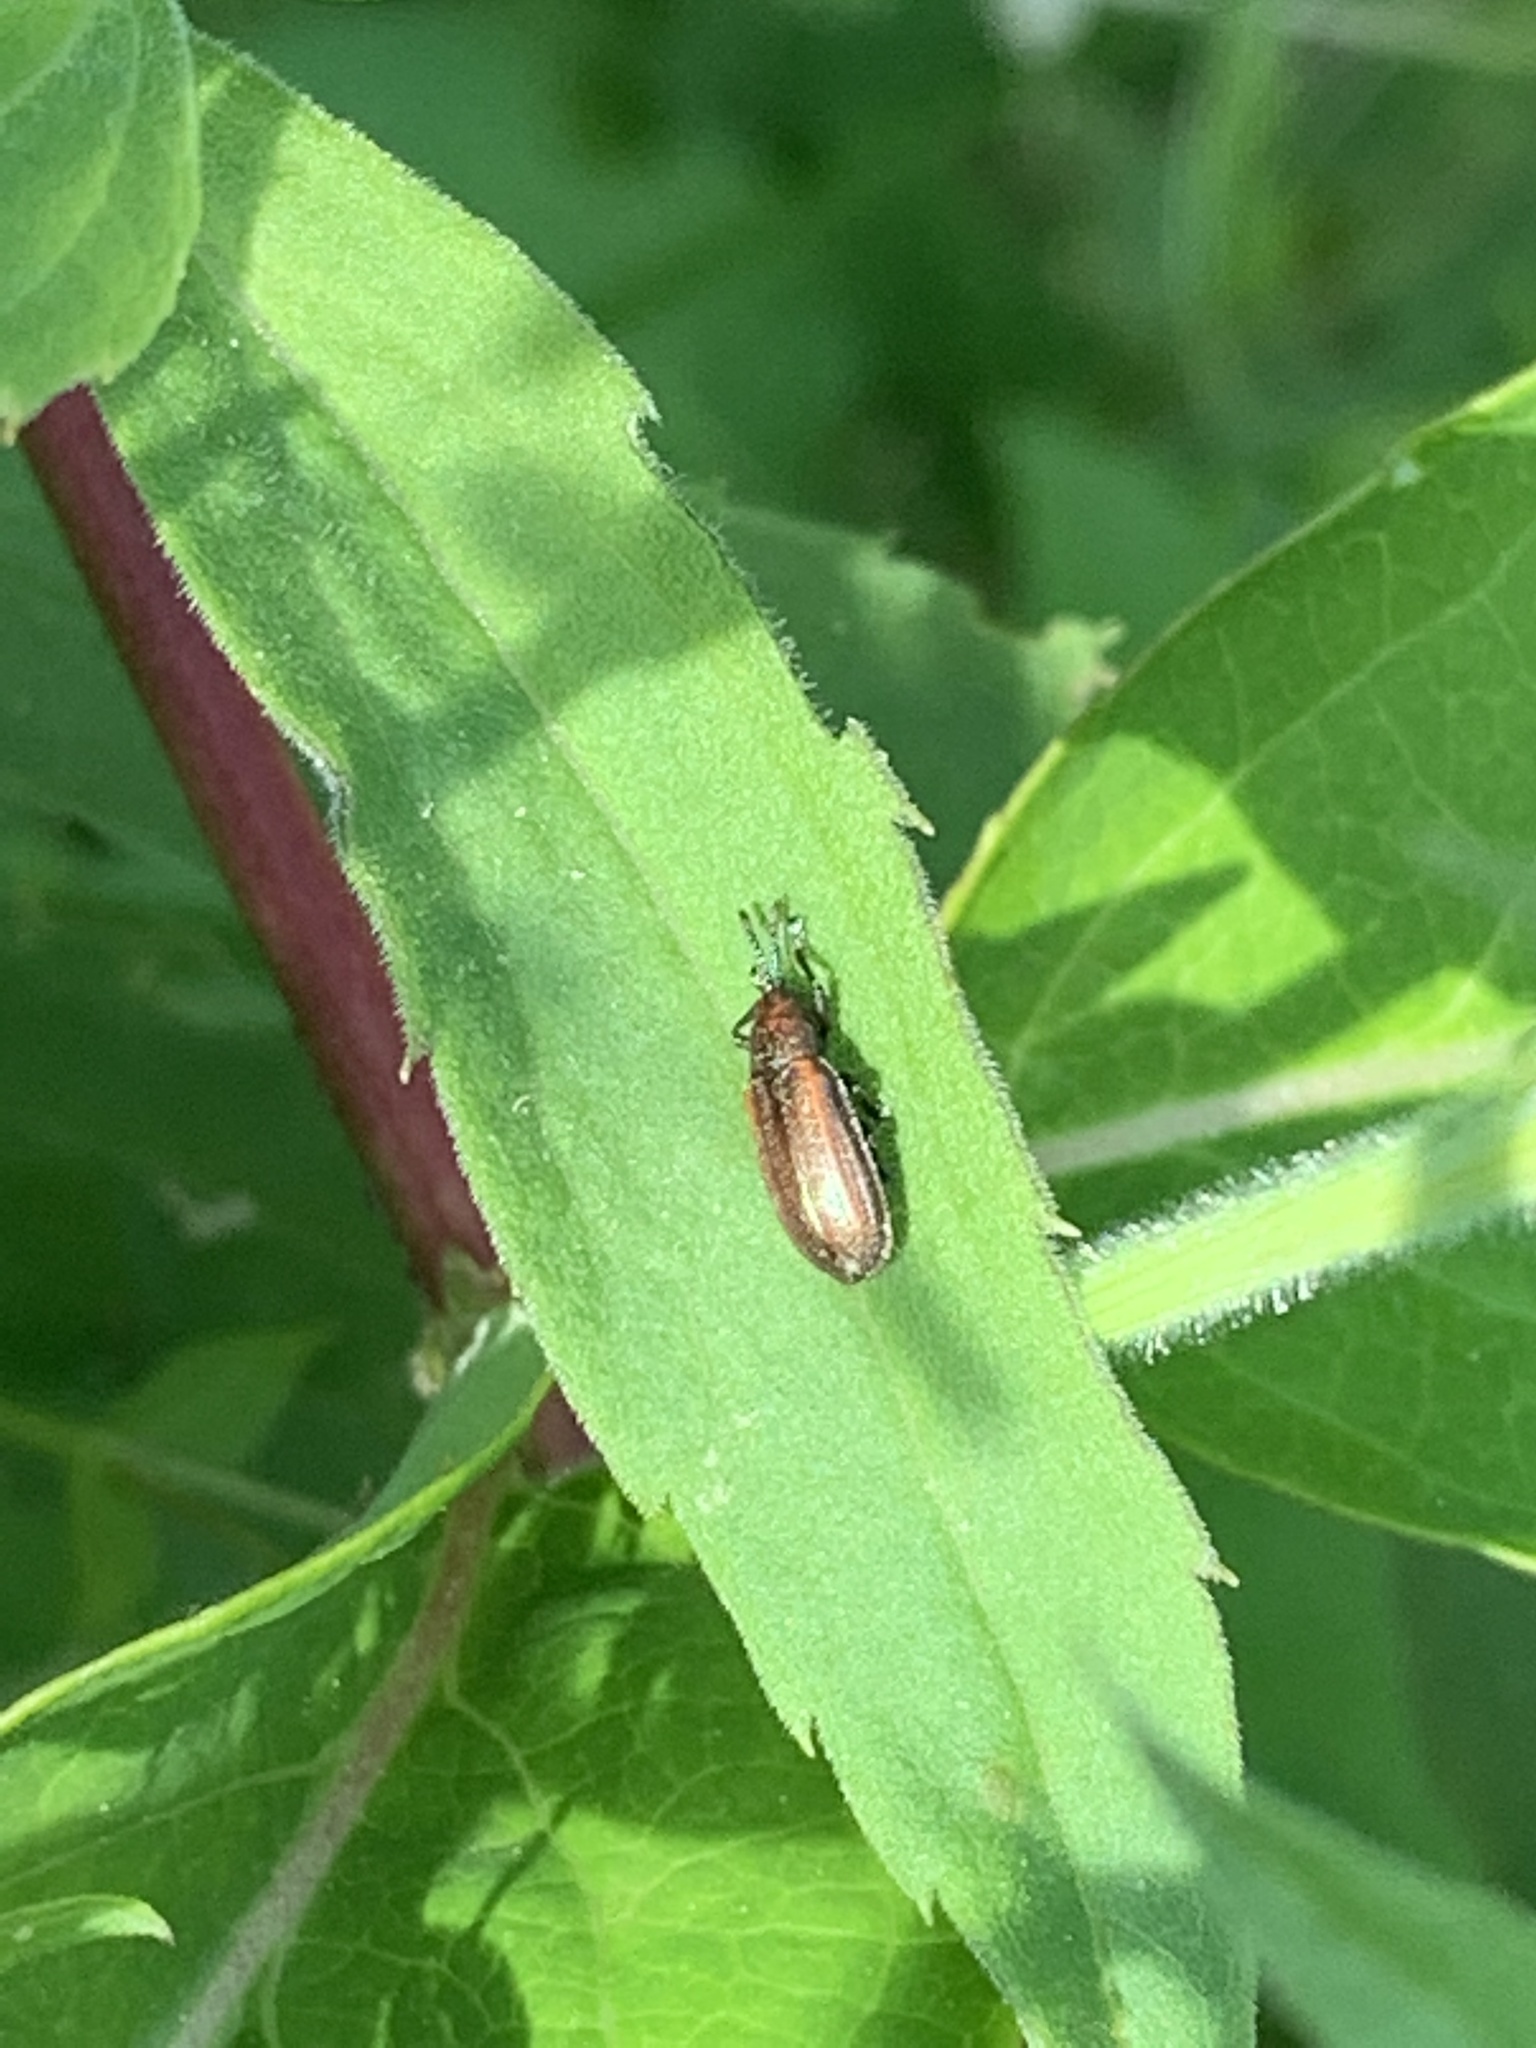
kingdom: Animalia
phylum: Arthropoda
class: Insecta
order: Coleoptera
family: Chrysomelidae
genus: Microrhopala
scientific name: Microrhopala vittata
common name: Goldenrod leaf miner beetle
